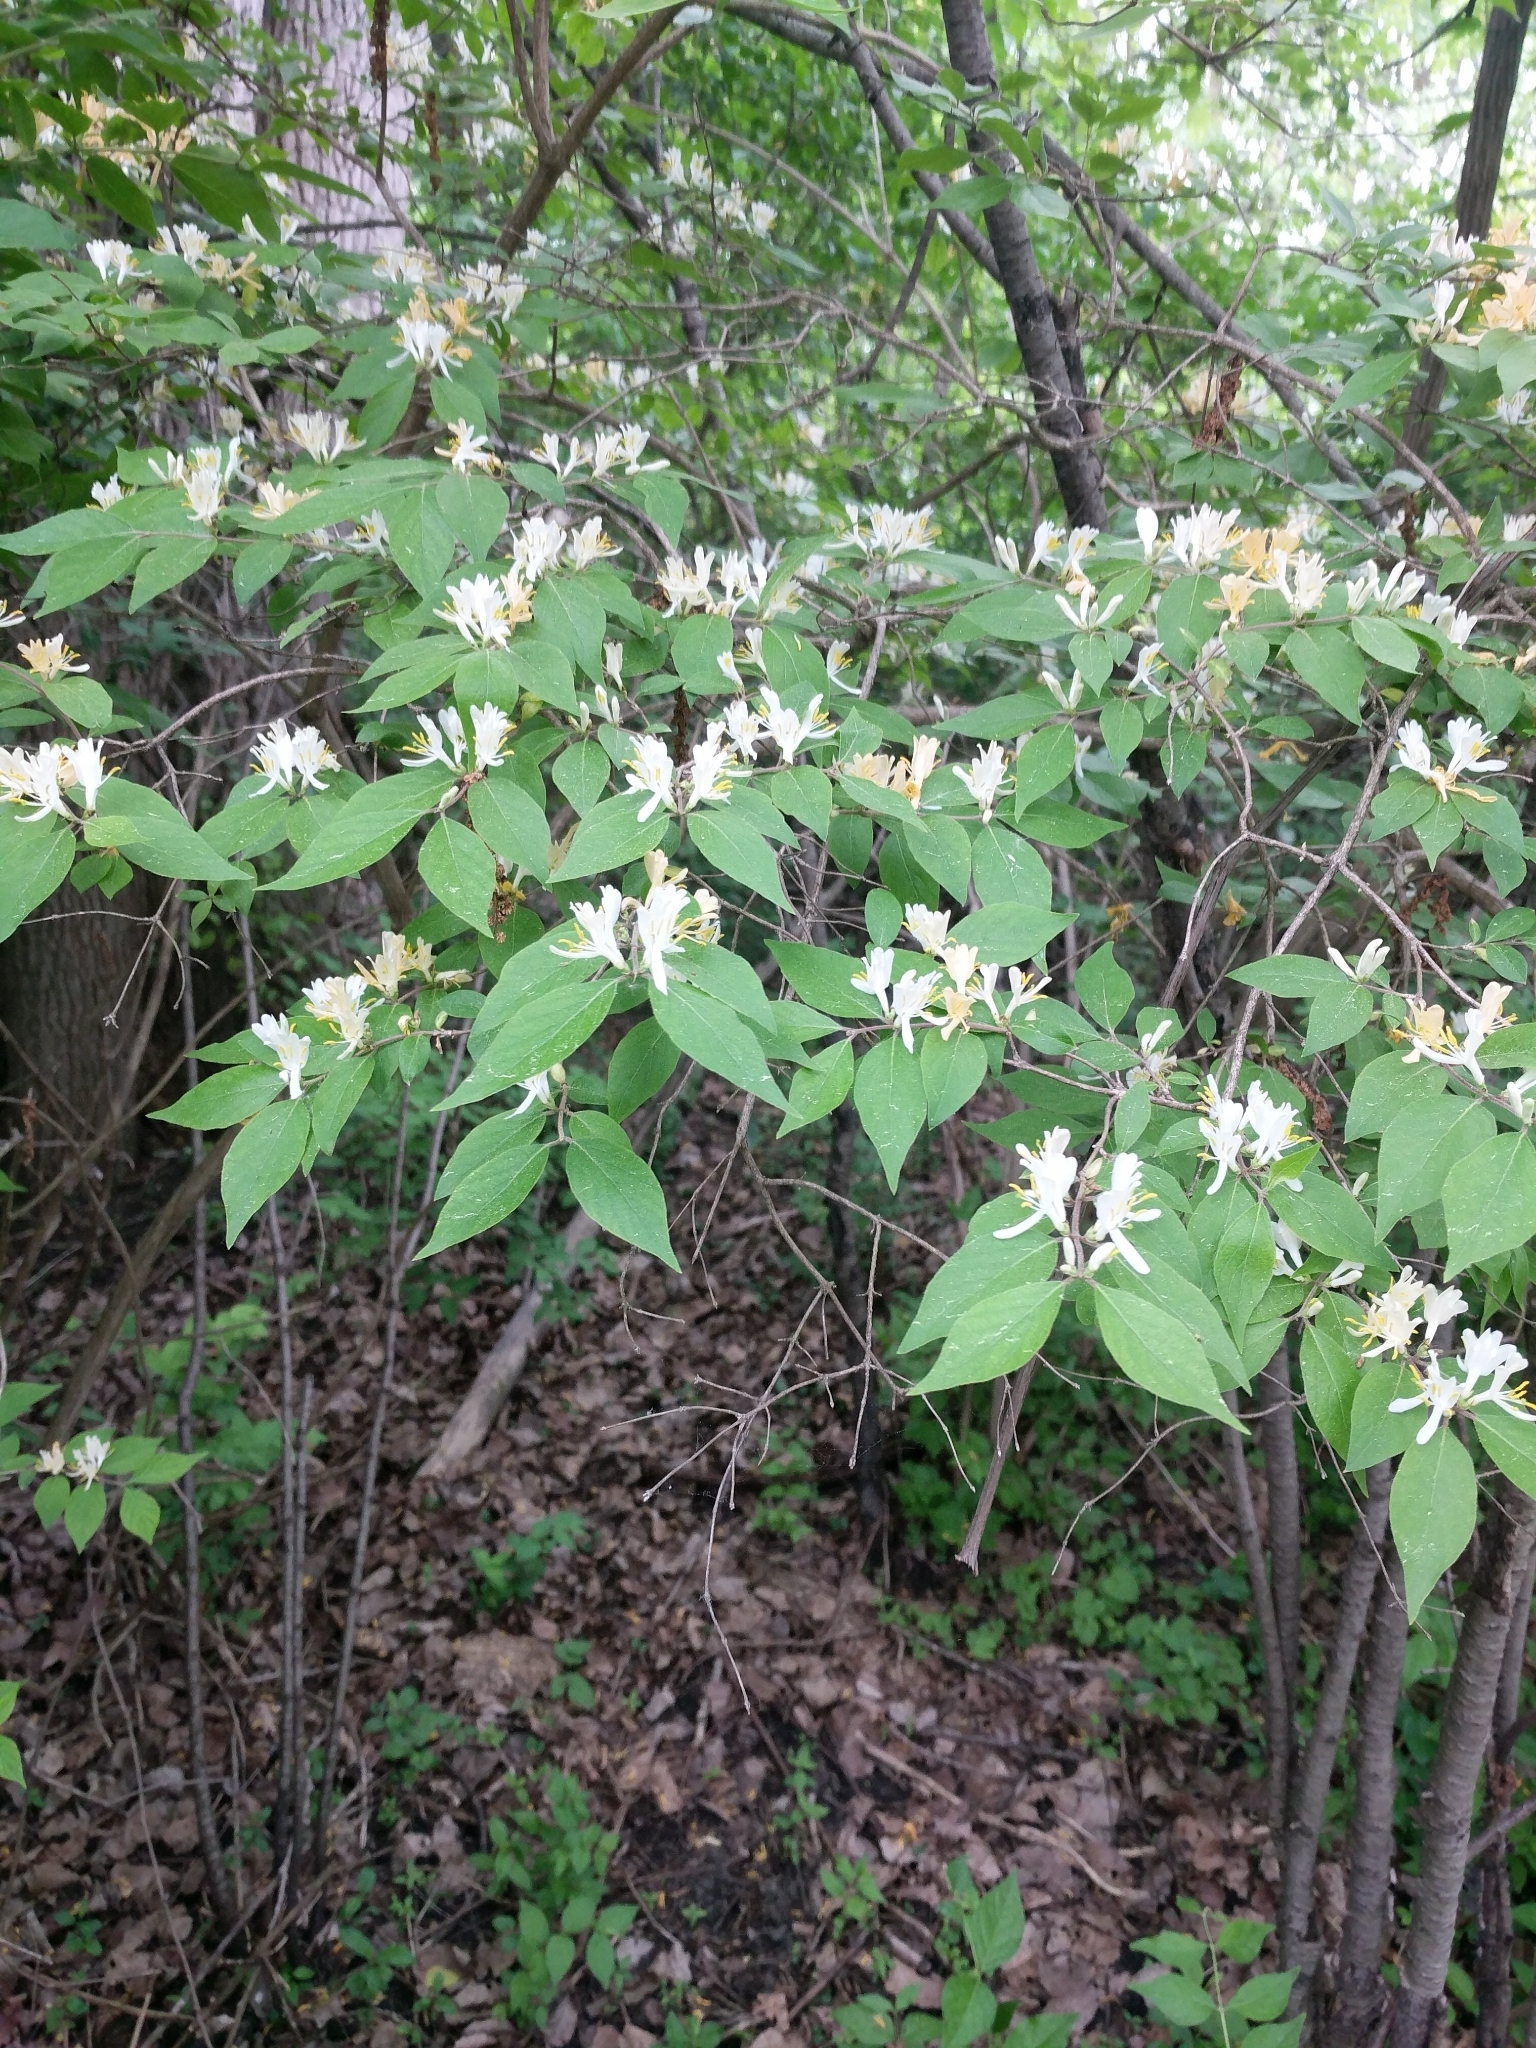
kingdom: Plantae
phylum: Tracheophyta
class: Magnoliopsida
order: Dipsacales
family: Caprifoliaceae
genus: Lonicera
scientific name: Lonicera maackii
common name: Amur honeysuckle
